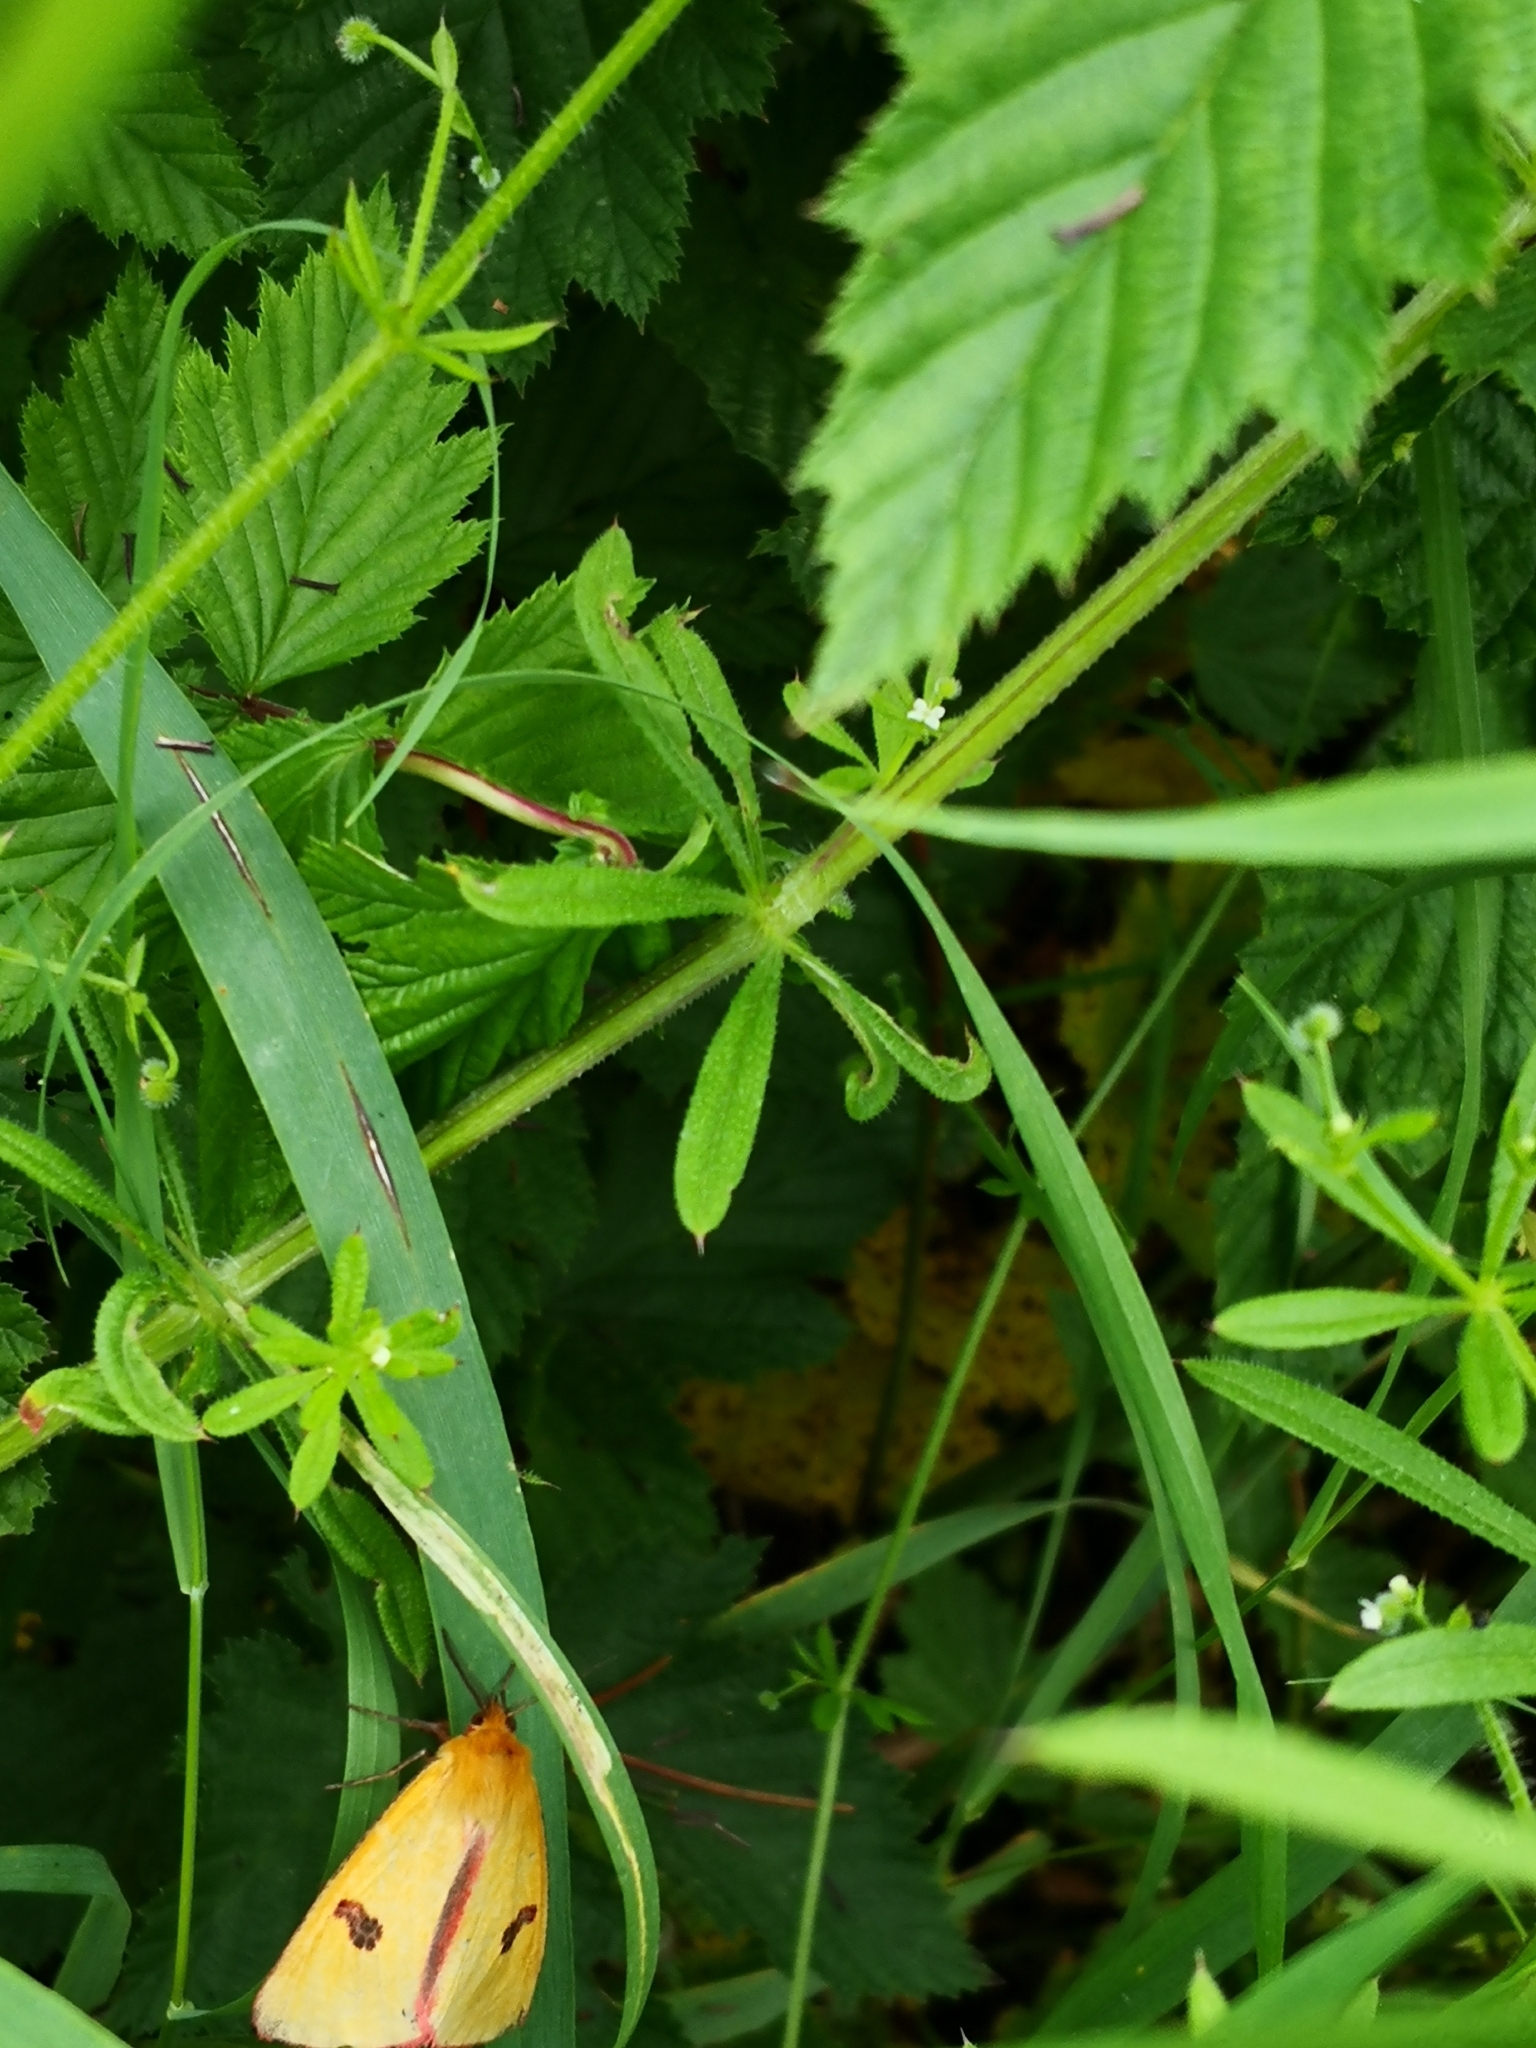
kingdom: Animalia
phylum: Arthropoda
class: Insecta
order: Lepidoptera
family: Erebidae
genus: Diacrisia
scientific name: Diacrisia sannio
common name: Clouded buff
